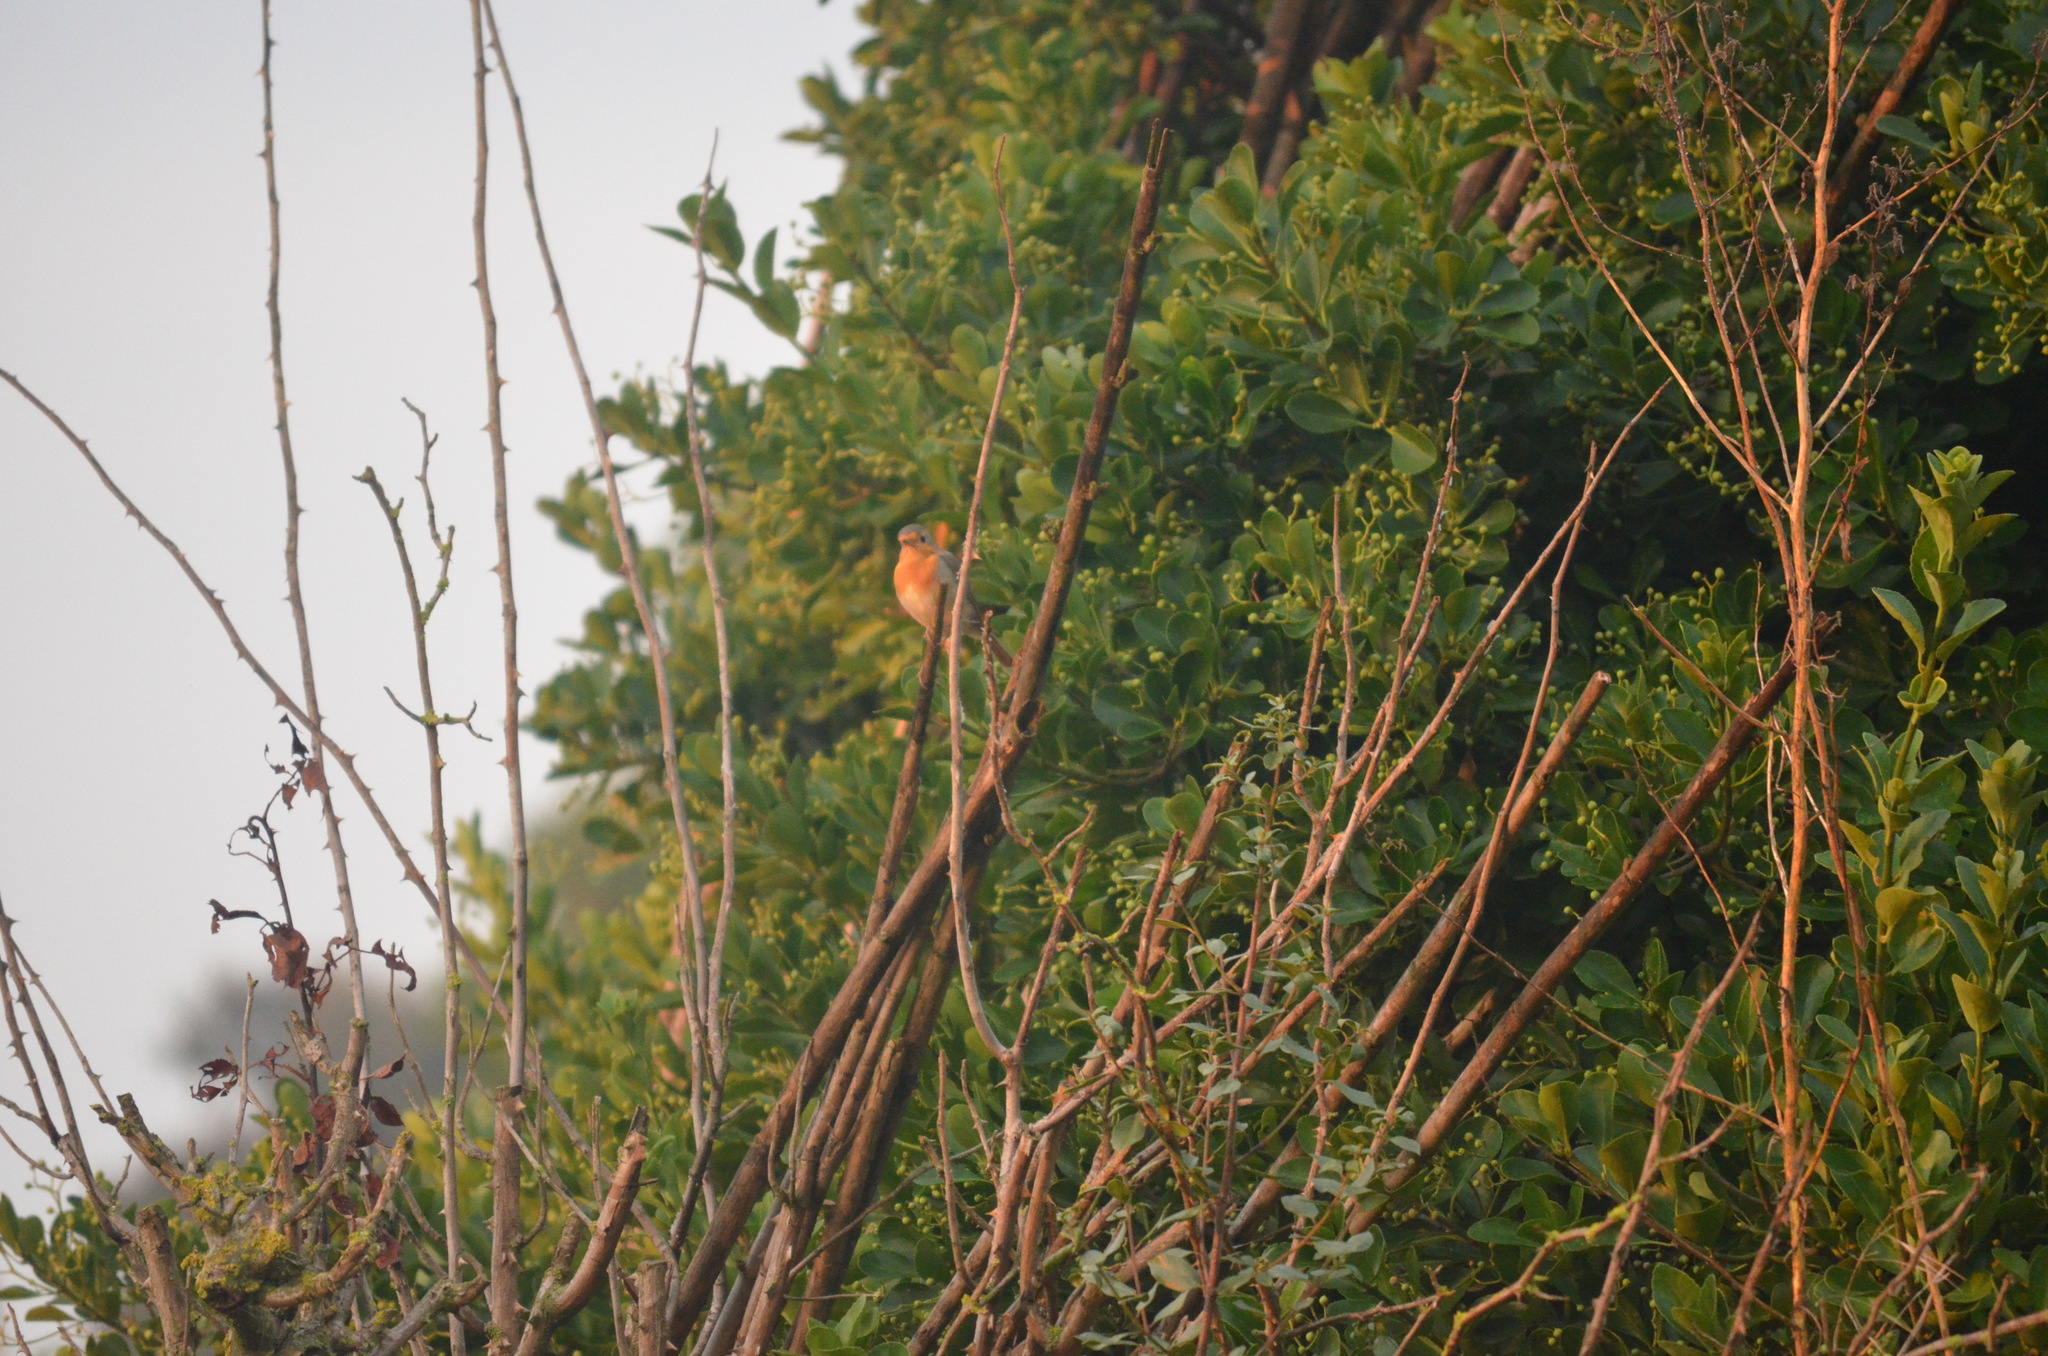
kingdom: Animalia
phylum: Chordata
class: Aves
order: Passeriformes
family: Muscicapidae
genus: Erithacus
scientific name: Erithacus rubecula
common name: European robin
